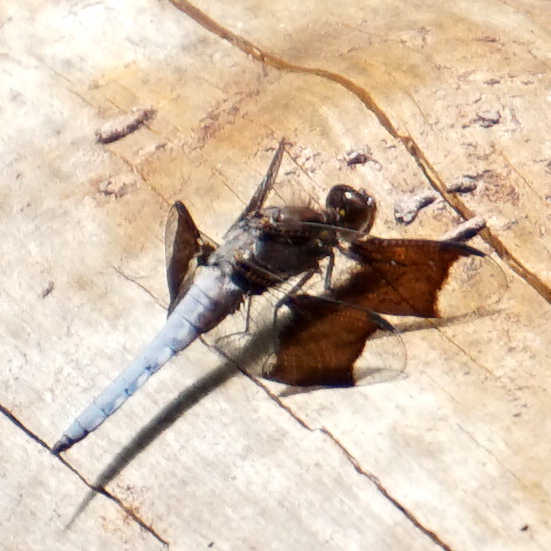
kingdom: Animalia
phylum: Arthropoda
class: Insecta
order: Odonata
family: Libellulidae
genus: Plathemis
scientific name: Plathemis lydia
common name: Common whitetail
